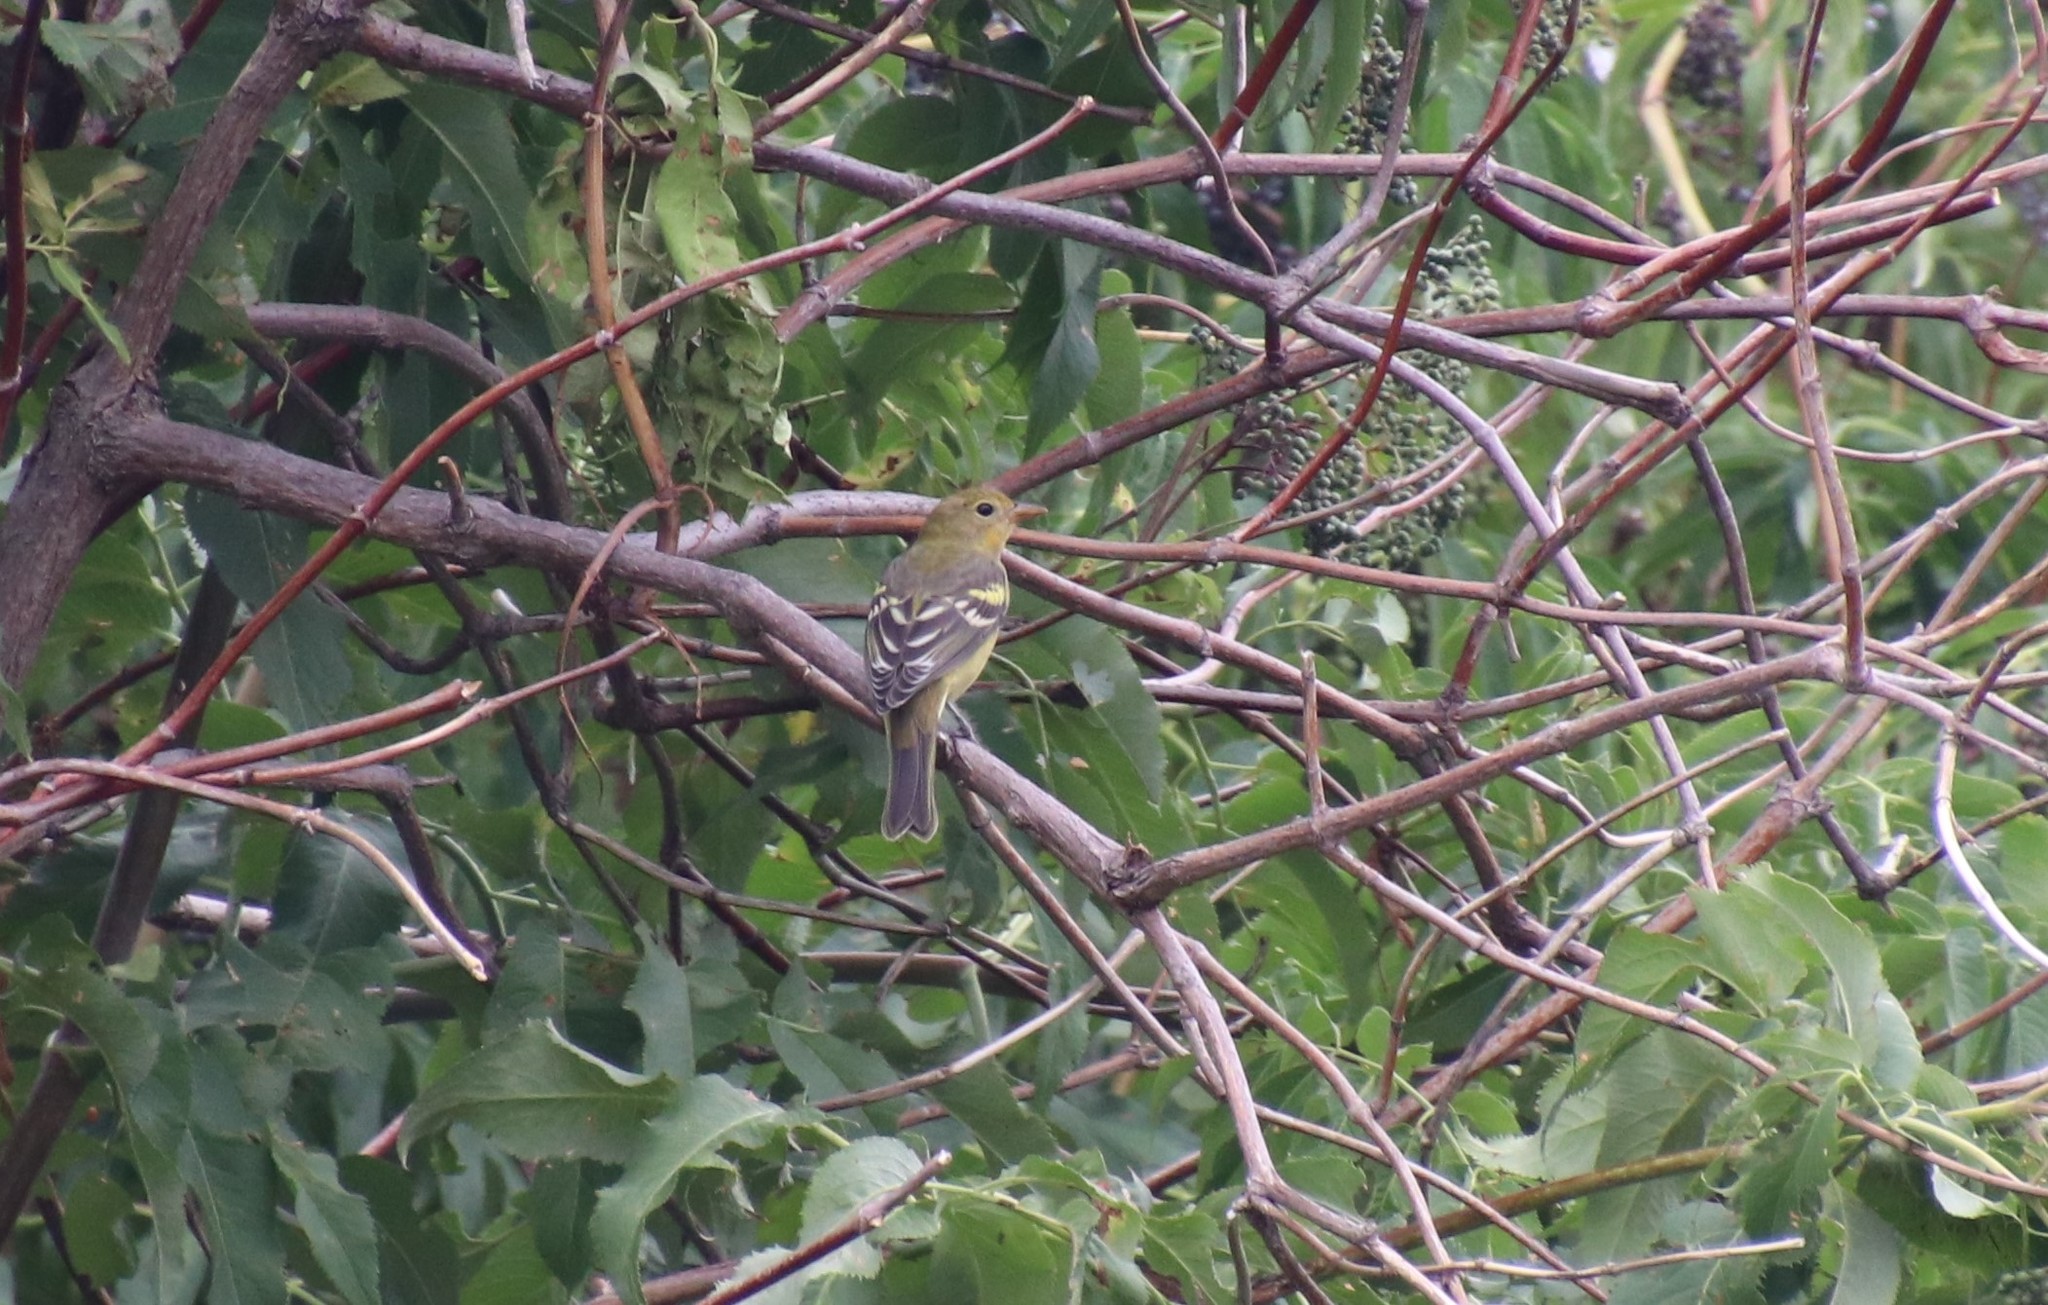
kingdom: Animalia
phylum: Chordata
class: Aves
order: Passeriformes
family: Cardinalidae
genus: Piranga
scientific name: Piranga ludoviciana
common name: Western tanager
